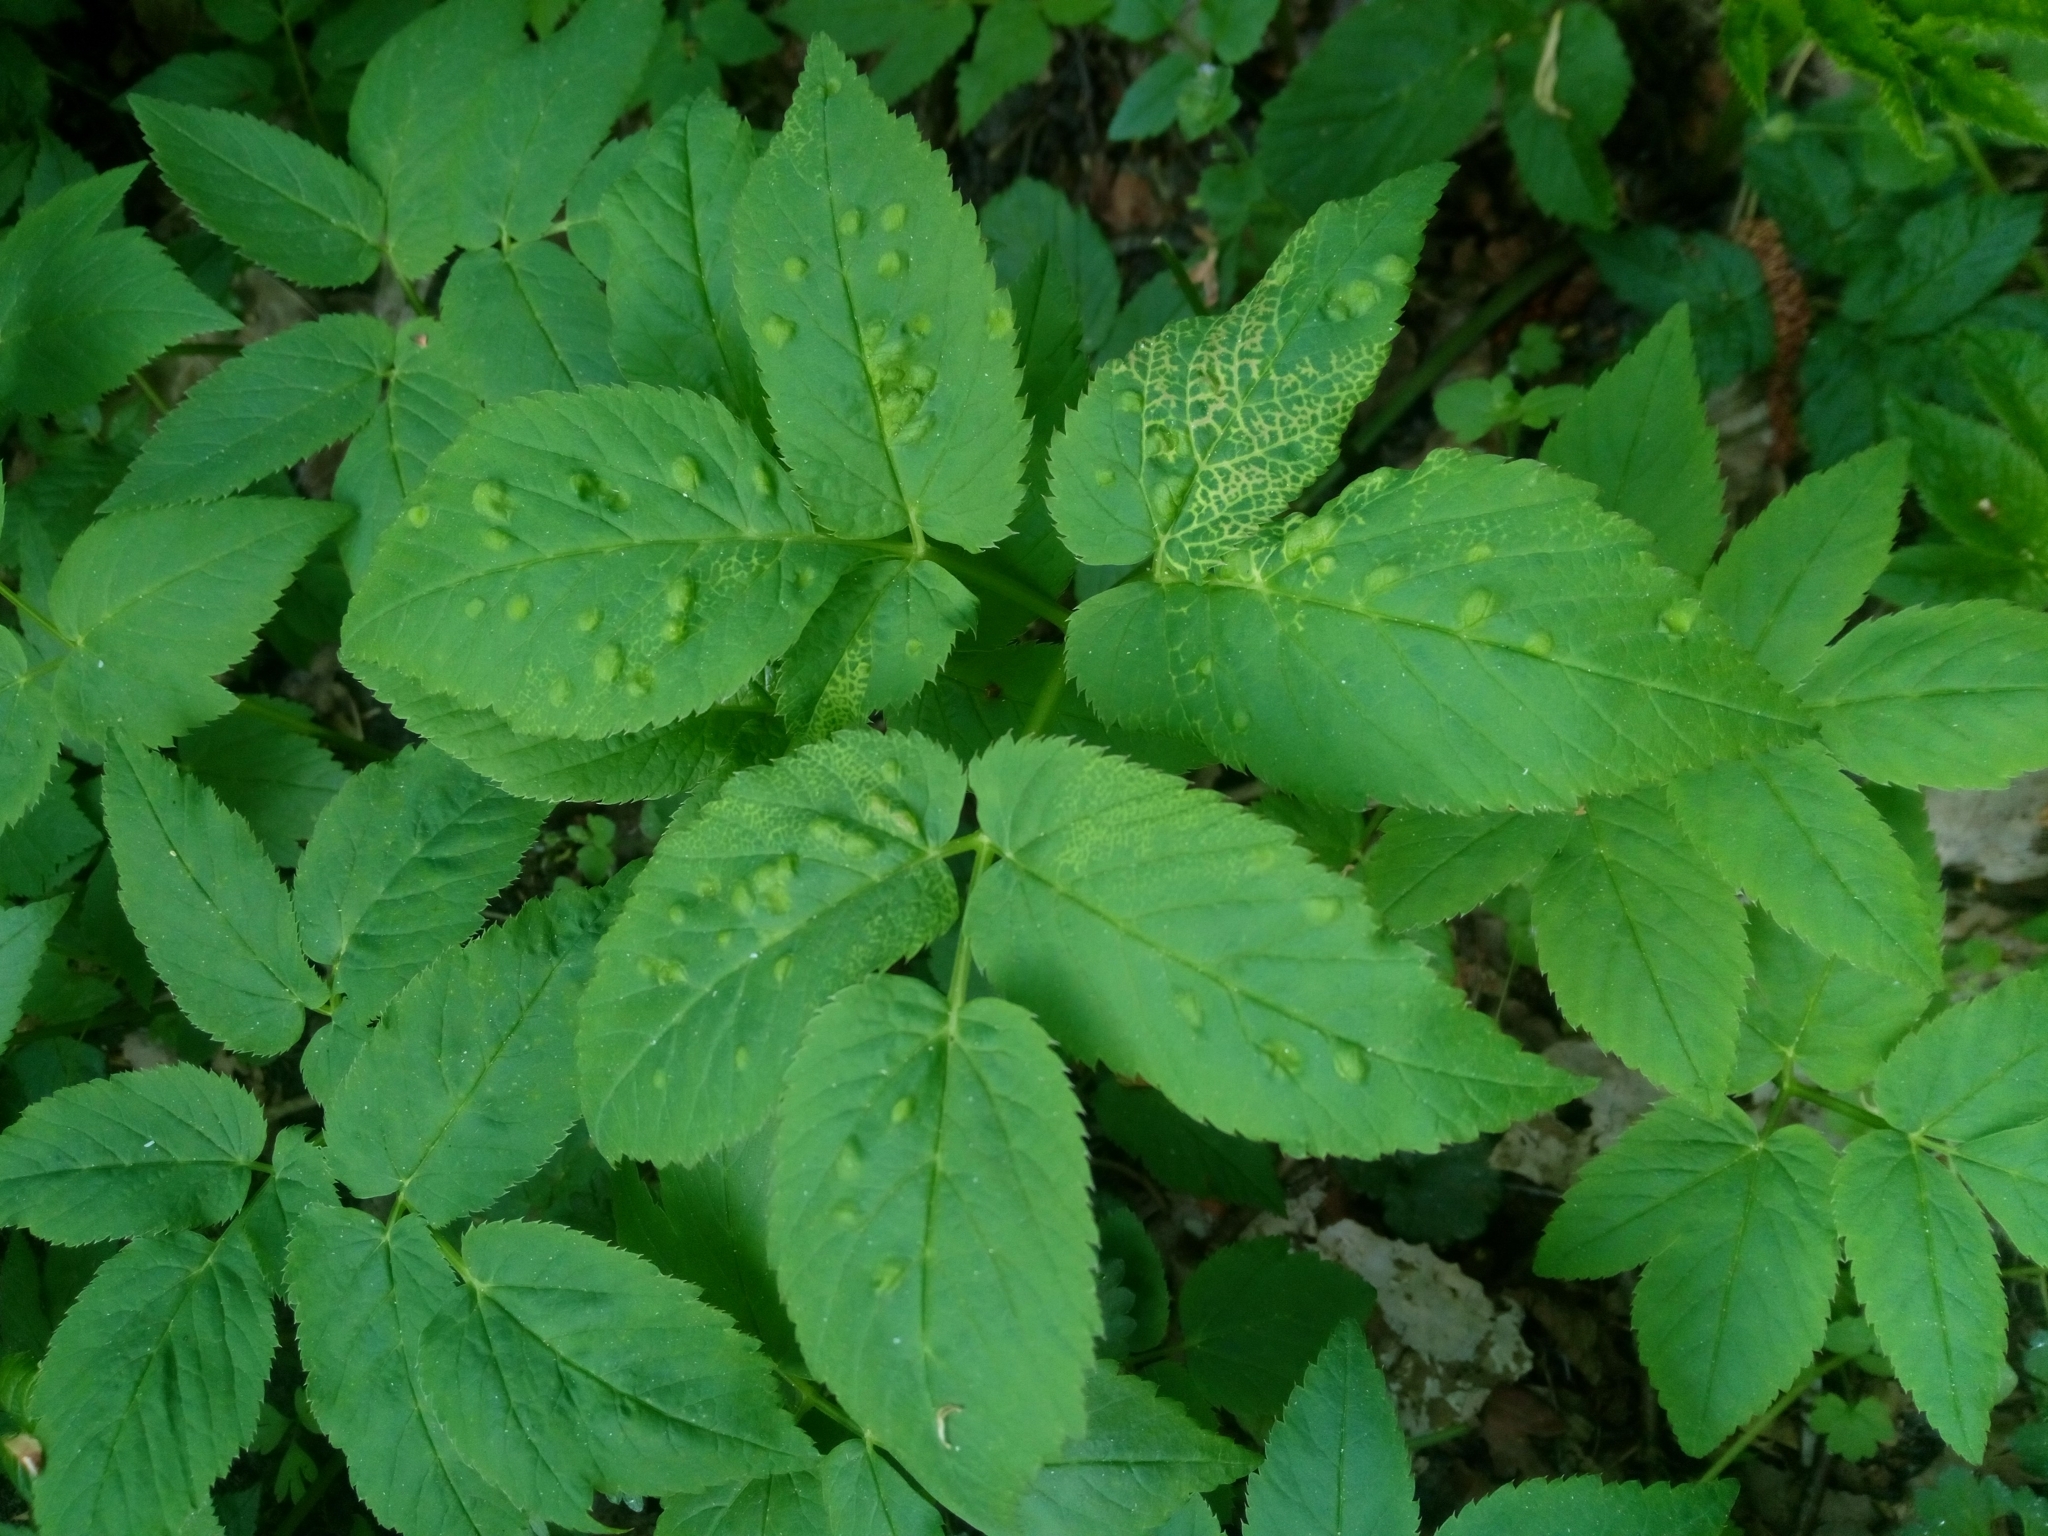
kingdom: Animalia
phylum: Arthropoda
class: Insecta
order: Hemiptera
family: Triozidae
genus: Trioza
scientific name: Trioza flavipennis
